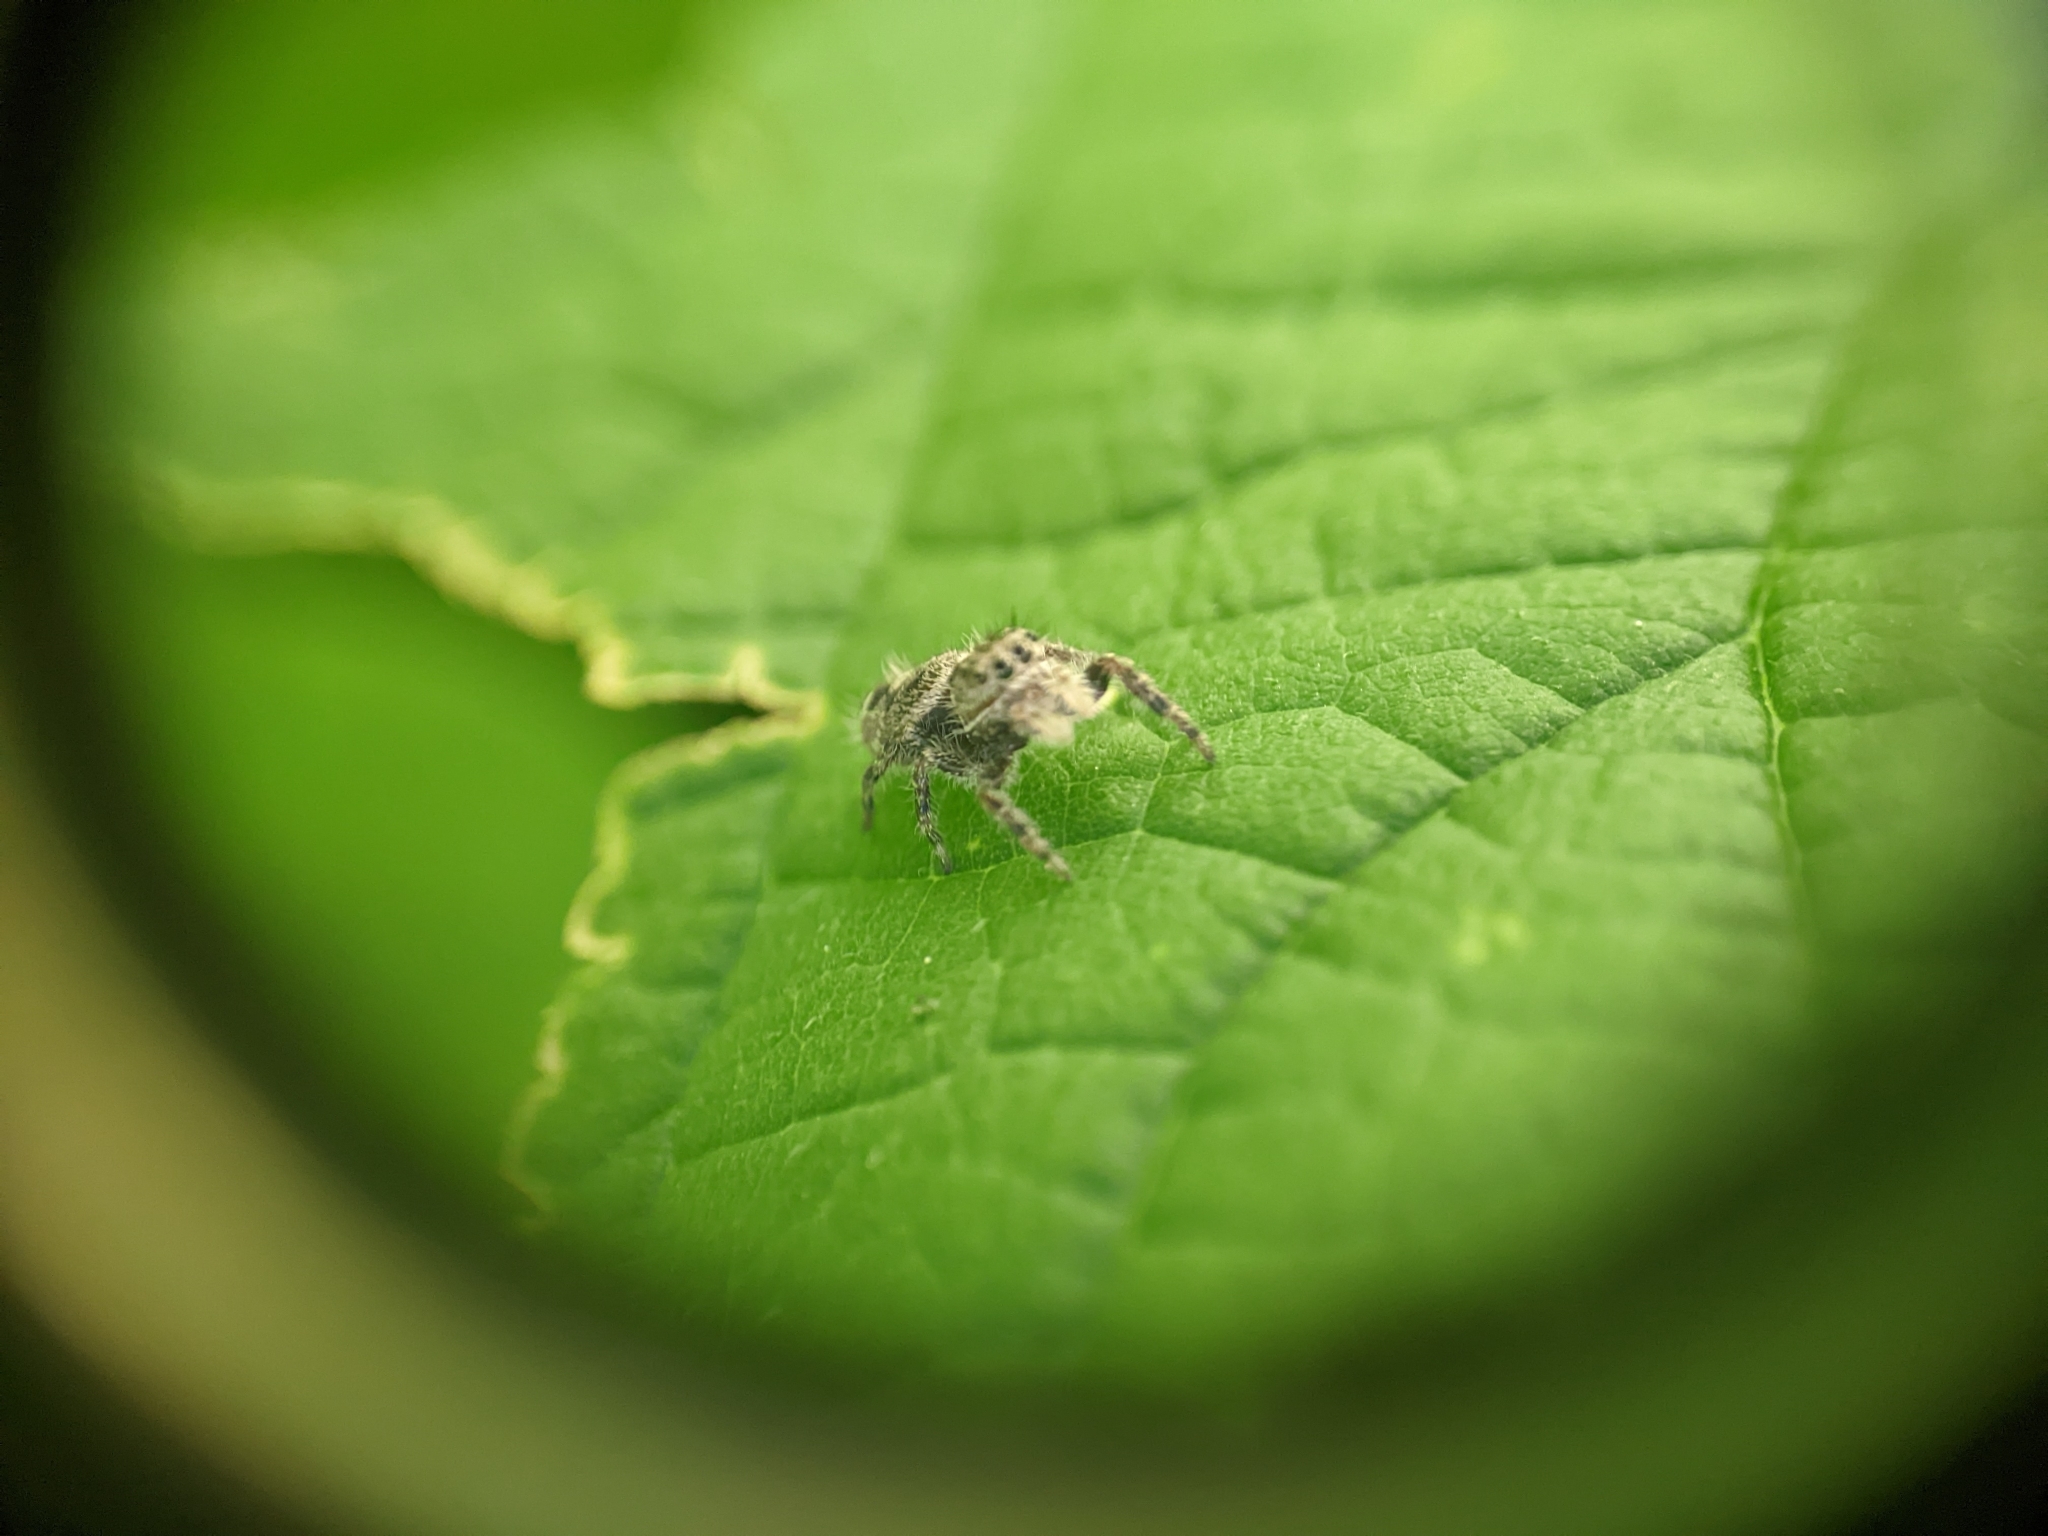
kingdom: Animalia
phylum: Arthropoda
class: Arachnida
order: Araneae
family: Salticidae
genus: Phidippus
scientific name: Phidippus putnami
